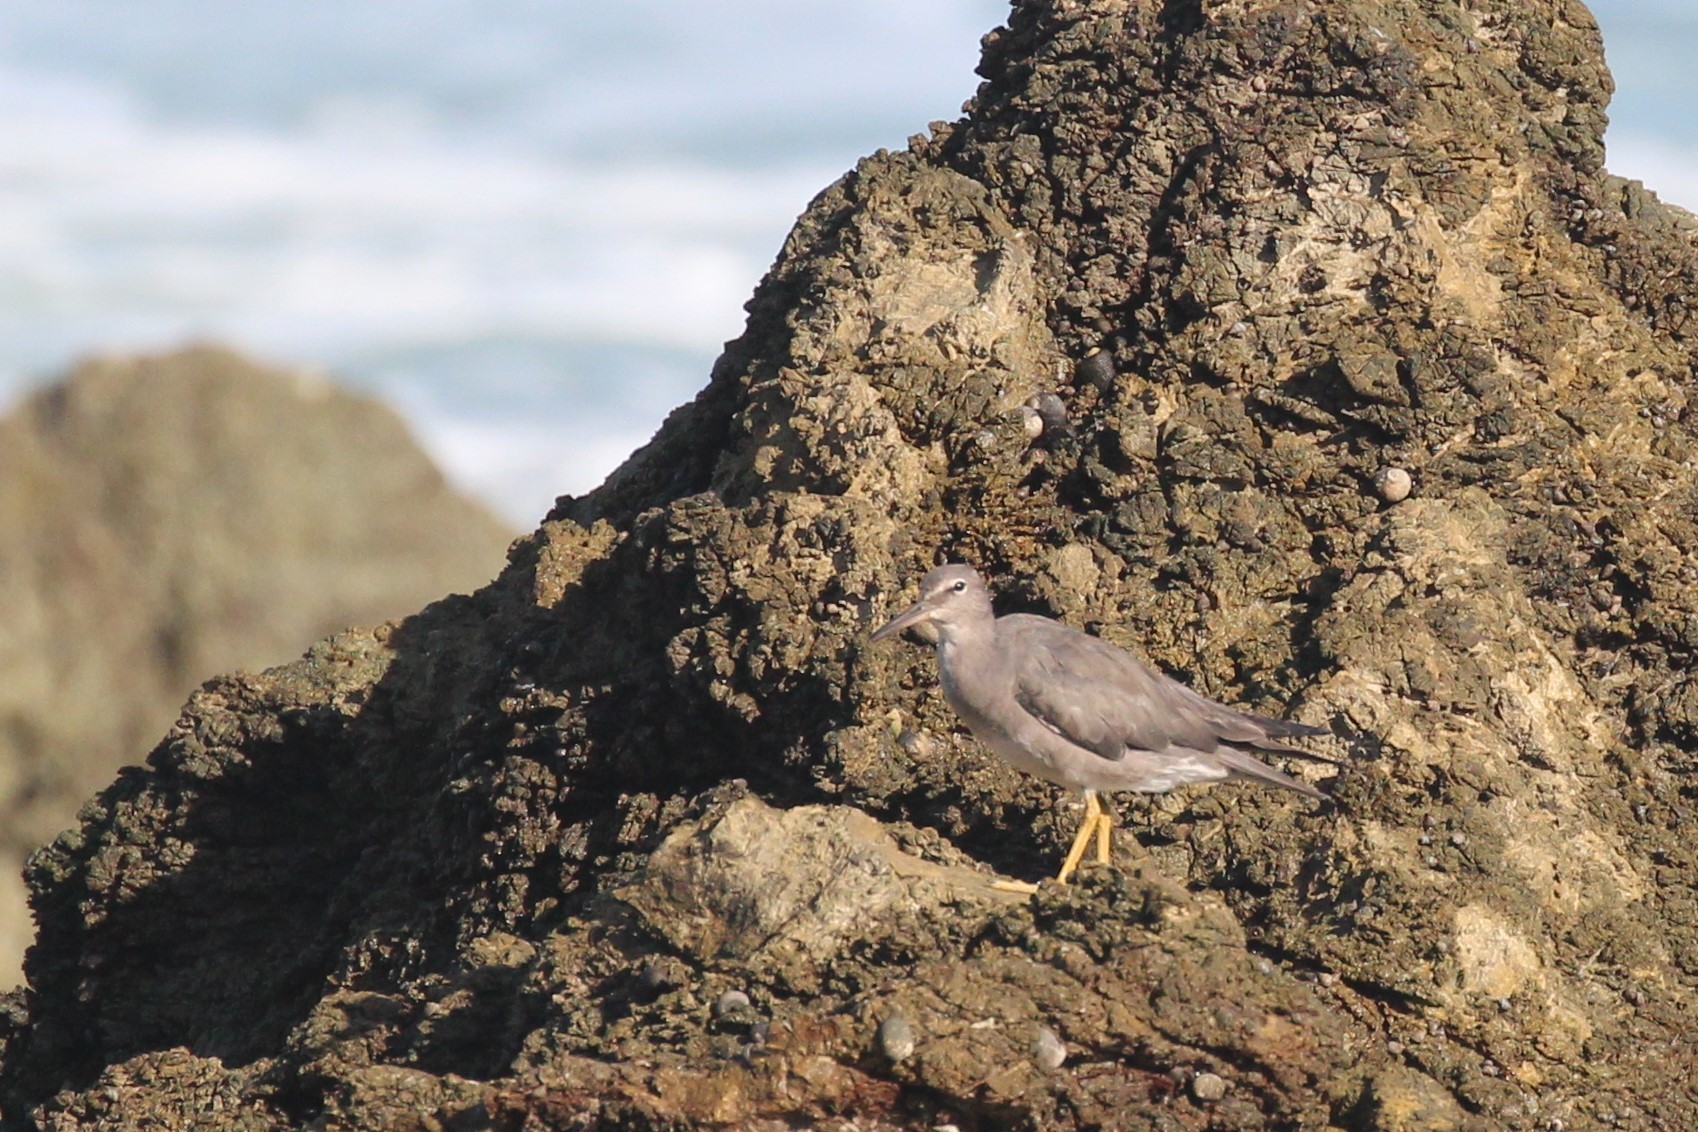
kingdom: Animalia
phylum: Chordata
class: Aves
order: Charadriiformes
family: Scolopacidae
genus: Tringa
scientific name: Tringa incana
